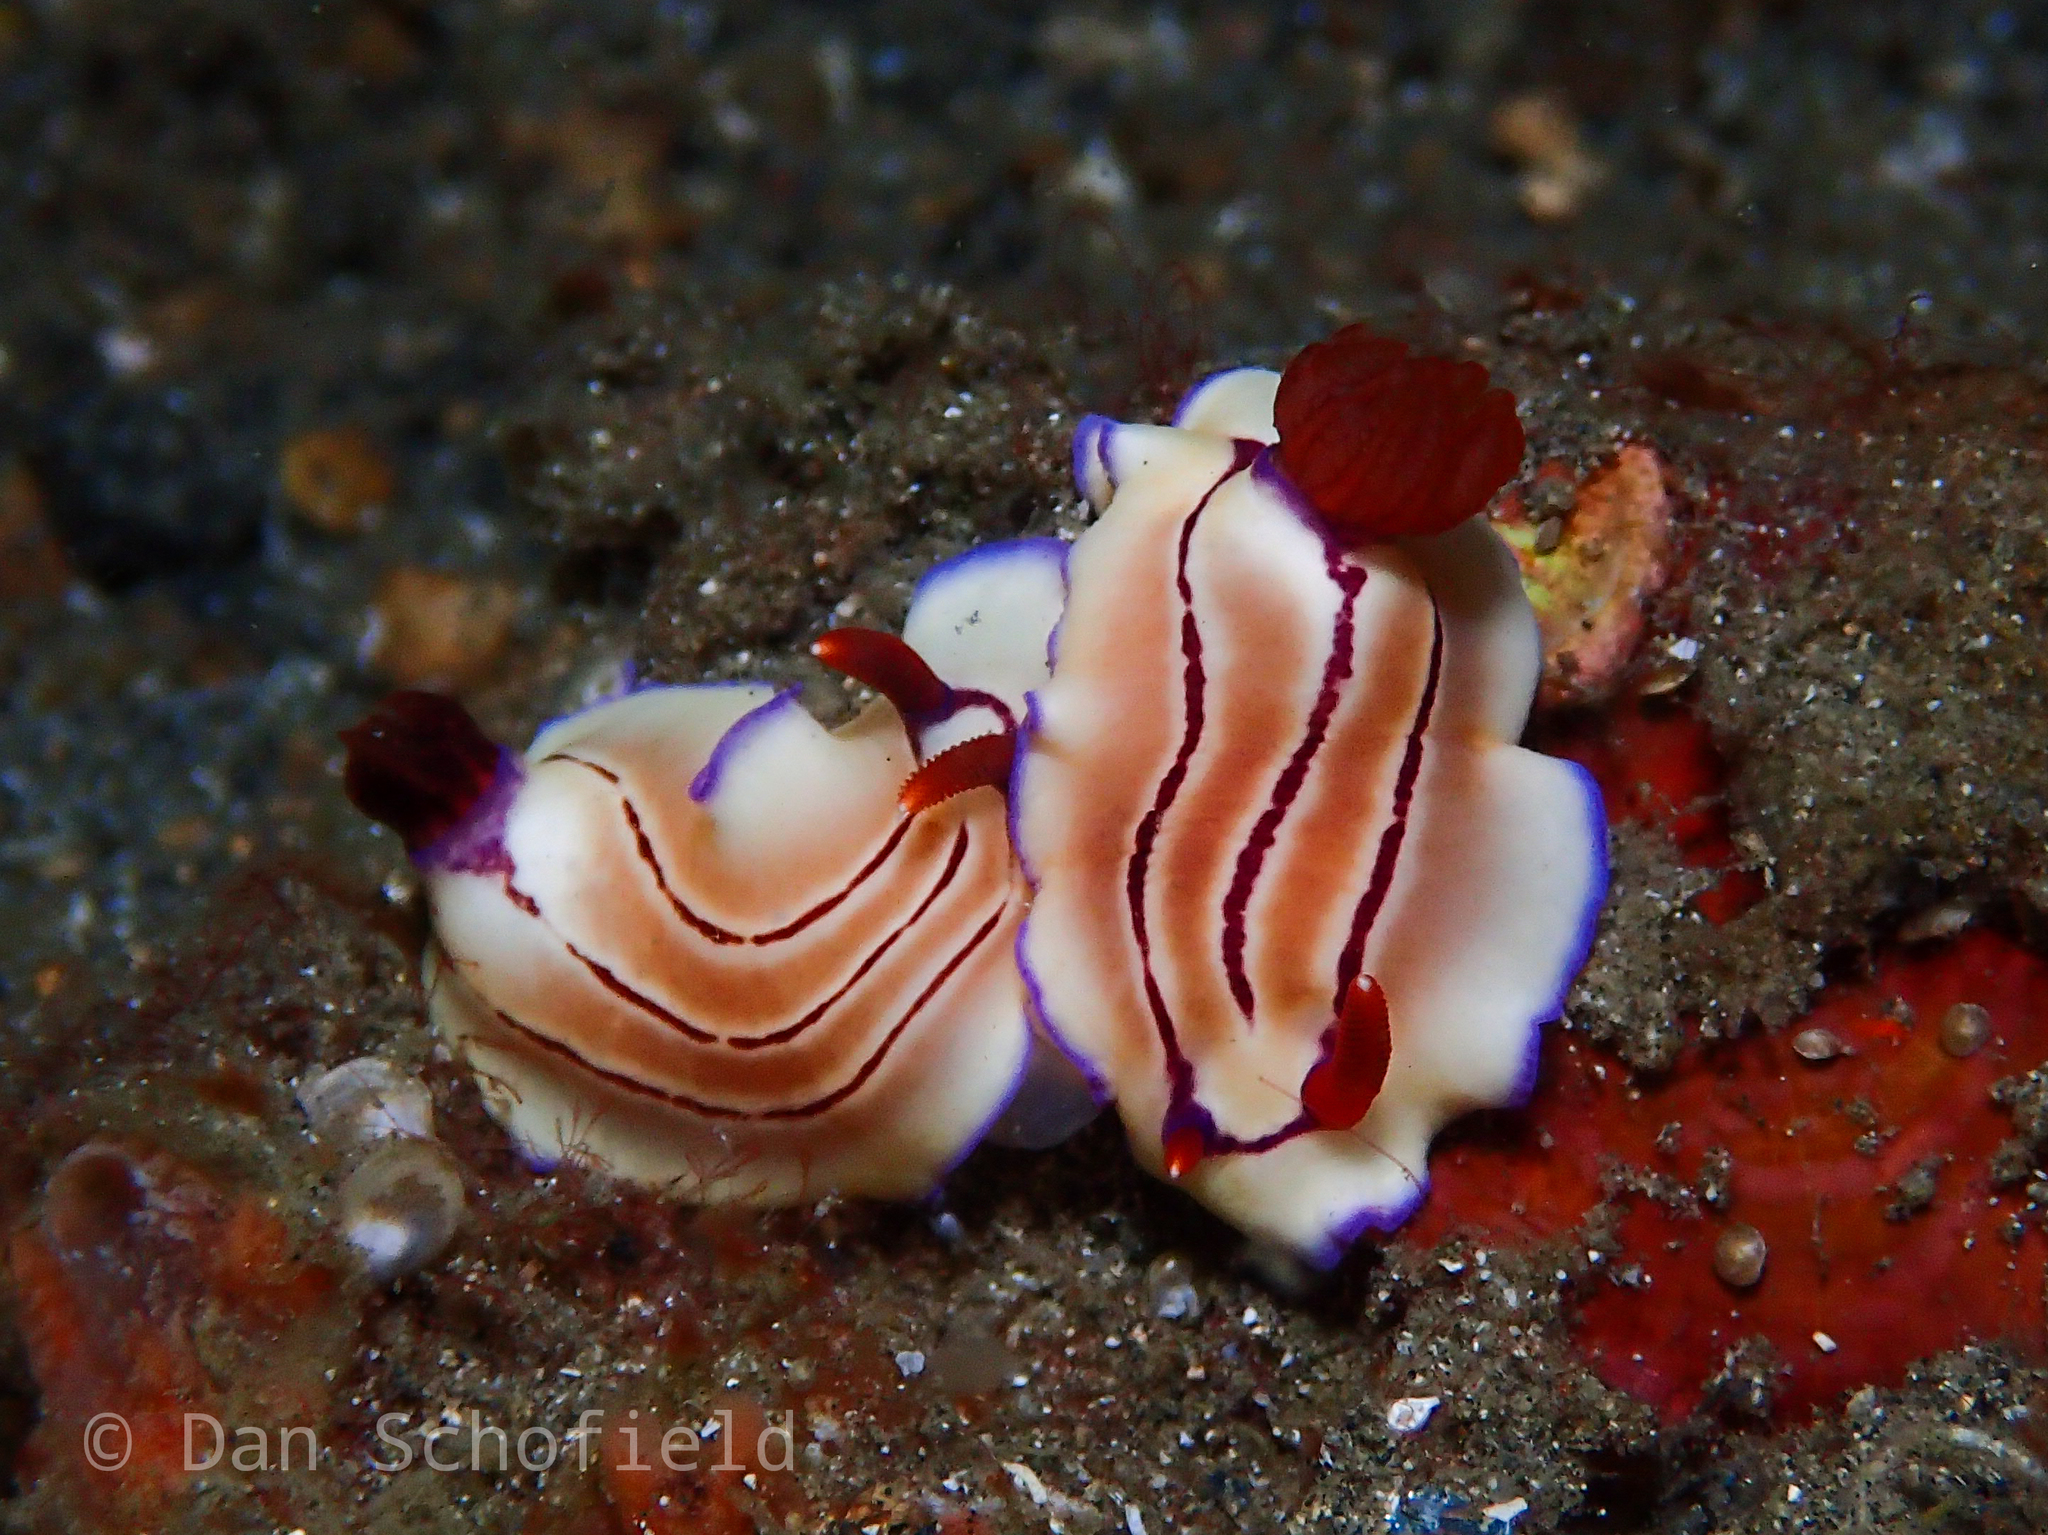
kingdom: Animalia
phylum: Mollusca
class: Gastropoda
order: Nudibranchia
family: Chromodorididae
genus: Hypselodoris
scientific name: Hypselodoris emma
